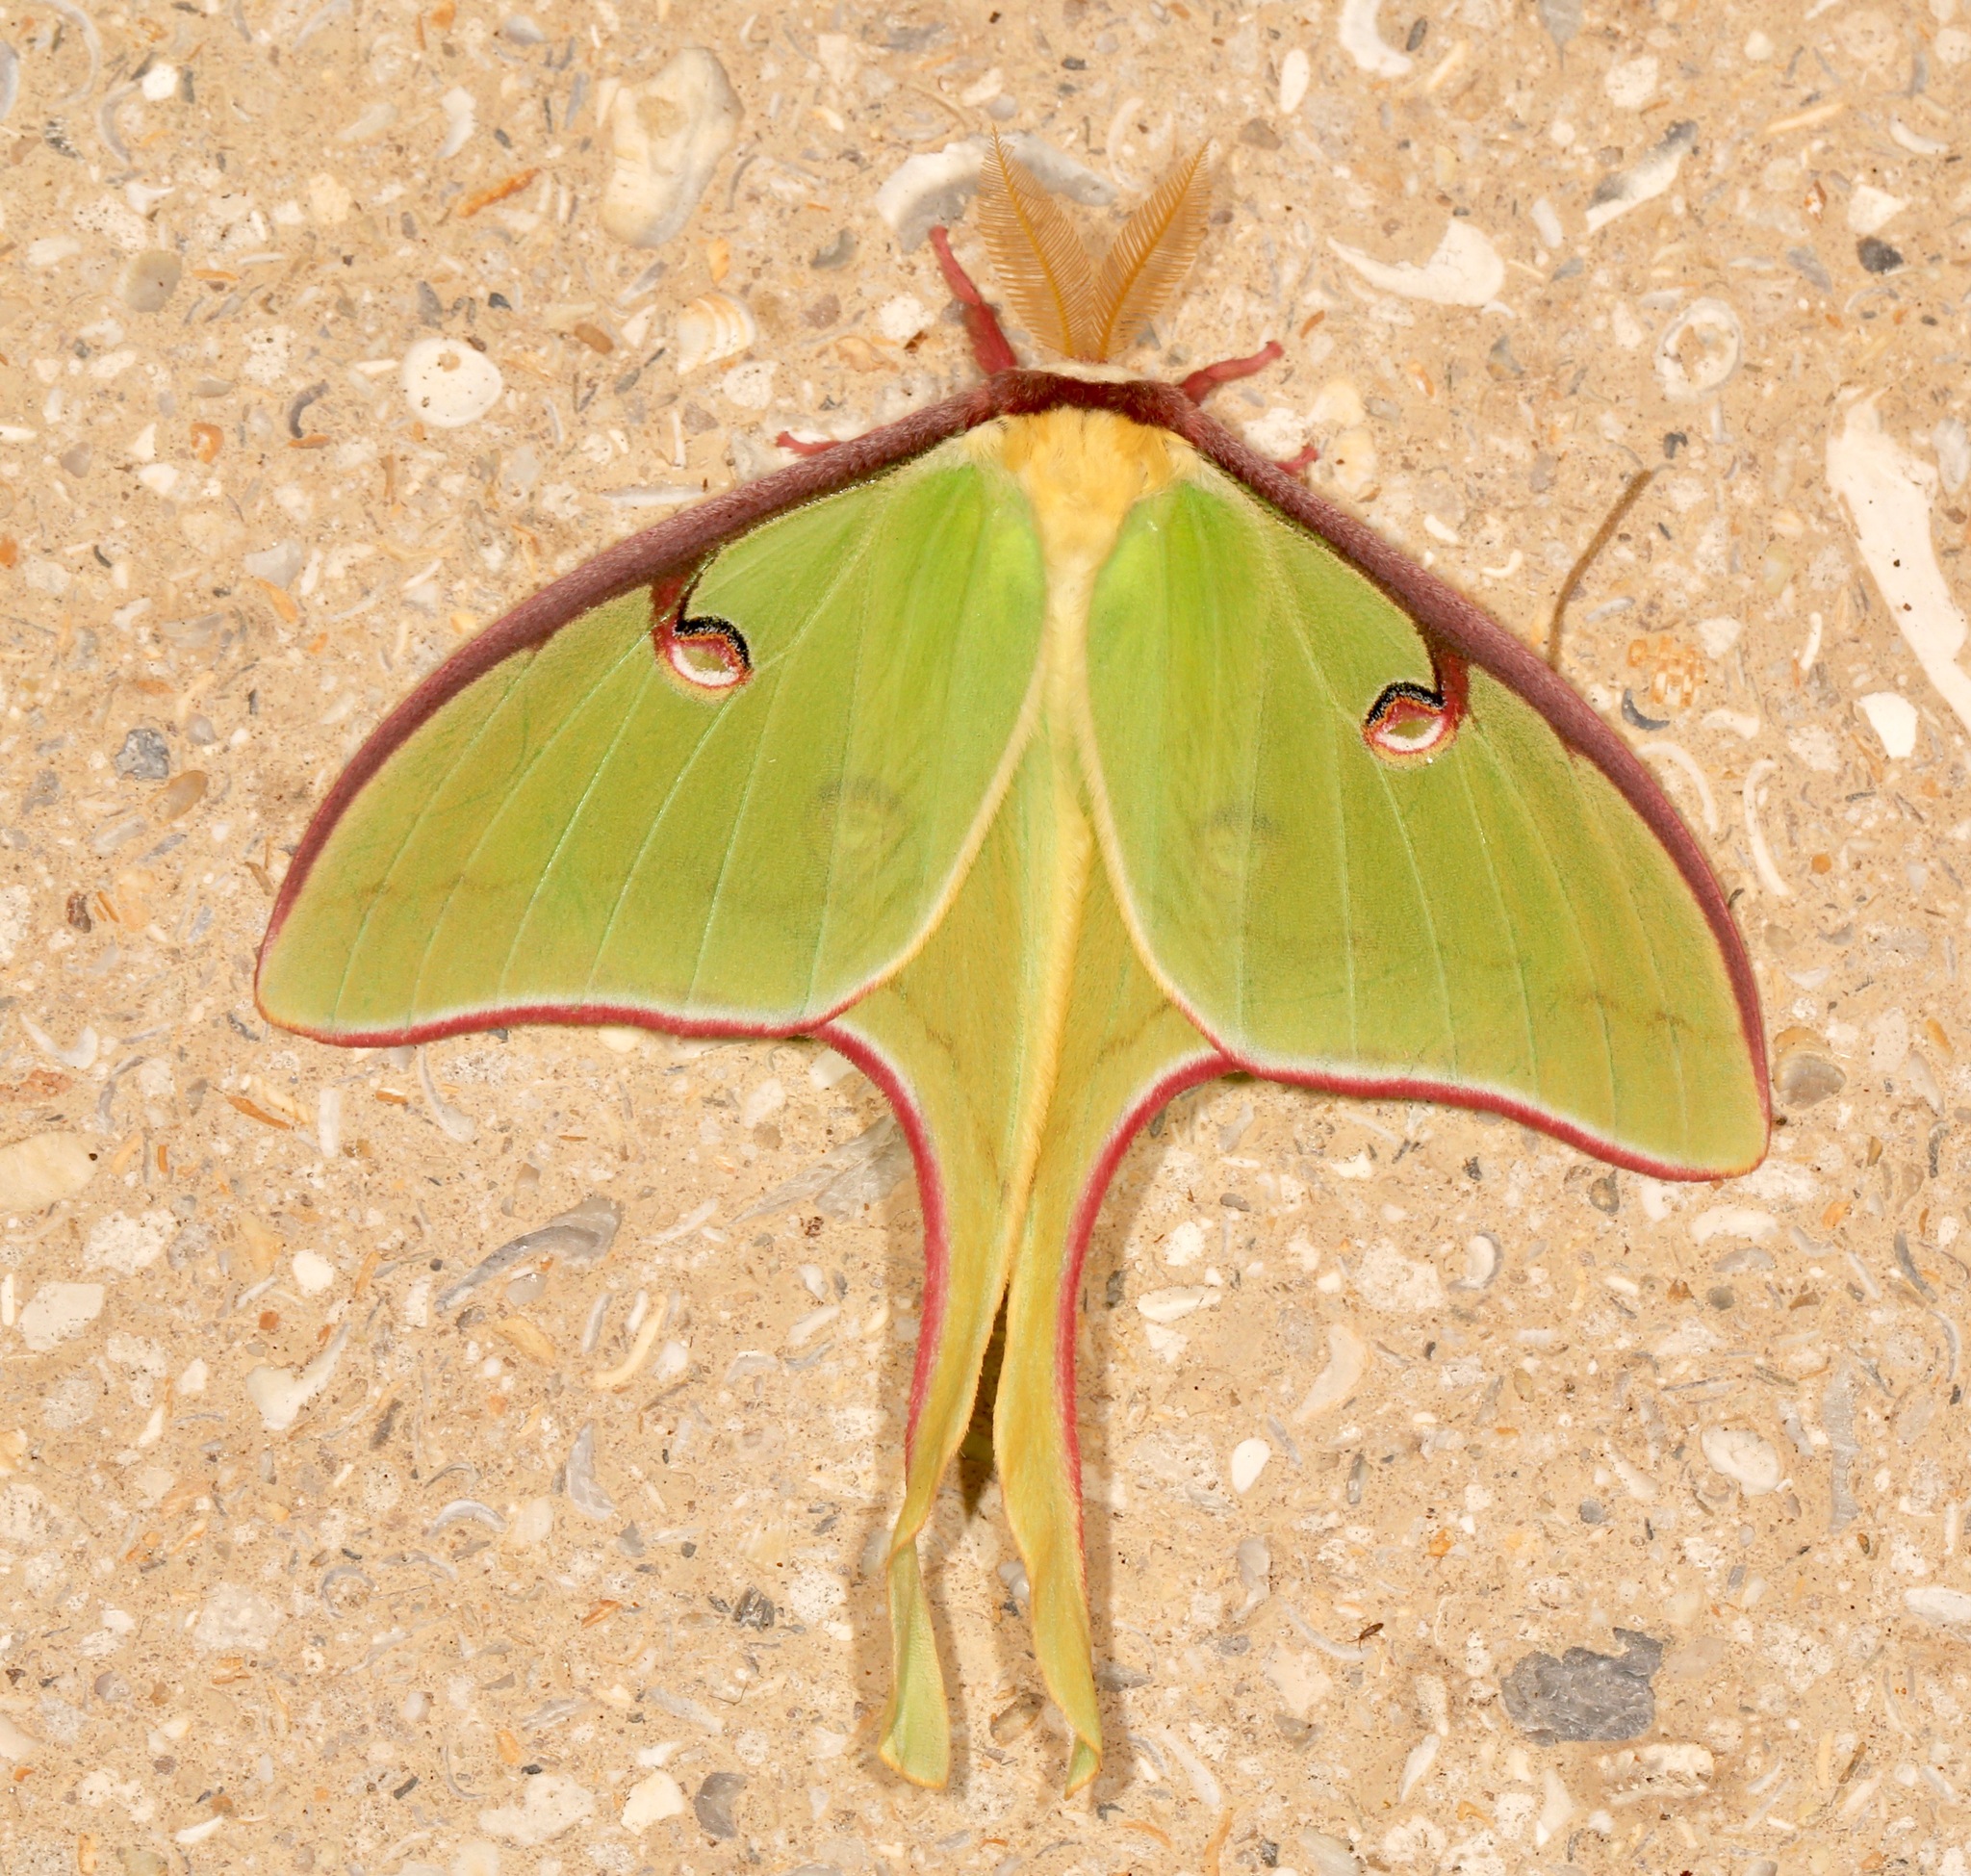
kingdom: Animalia
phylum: Arthropoda
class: Insecta
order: Lepidoptera
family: Saturniidae
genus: Actias
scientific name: Actias luna
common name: Luna moth
